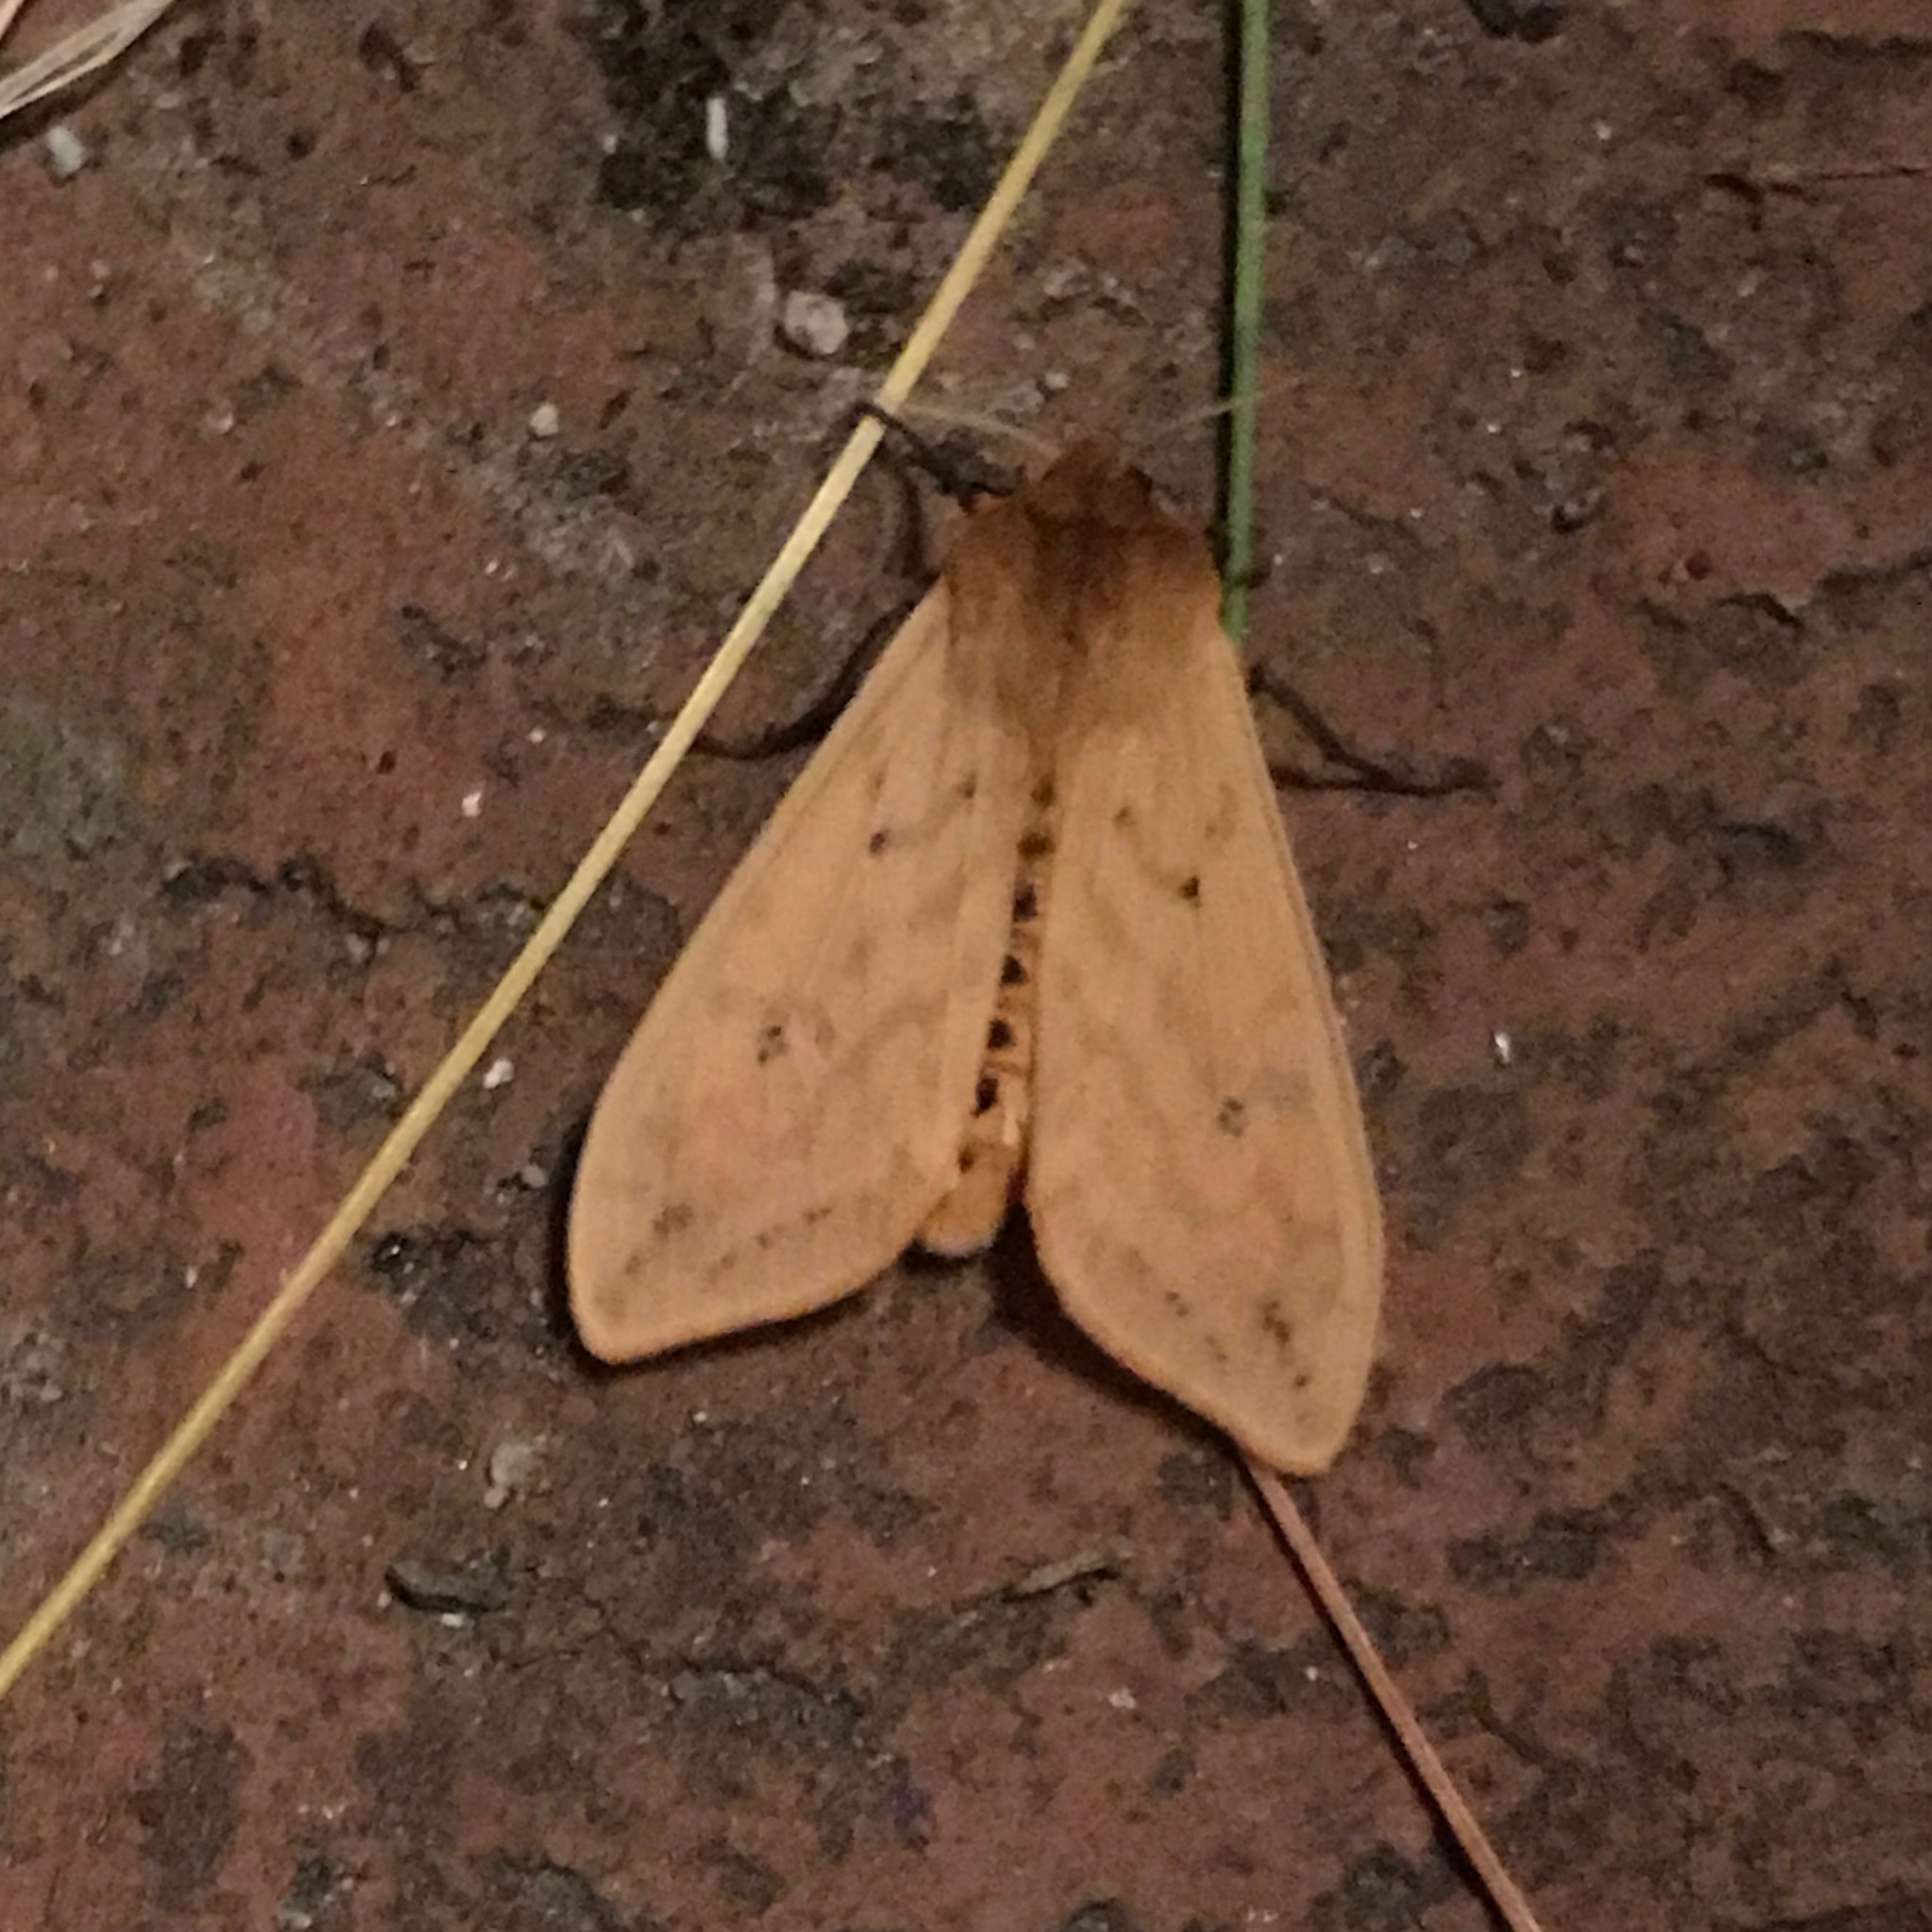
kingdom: Animalia
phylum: Arthropoda
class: Insecta
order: Lepidoptera
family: Erebidae
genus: Pyrrharctia
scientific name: Pyrrharctia isabella
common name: Isabella tiger moth
